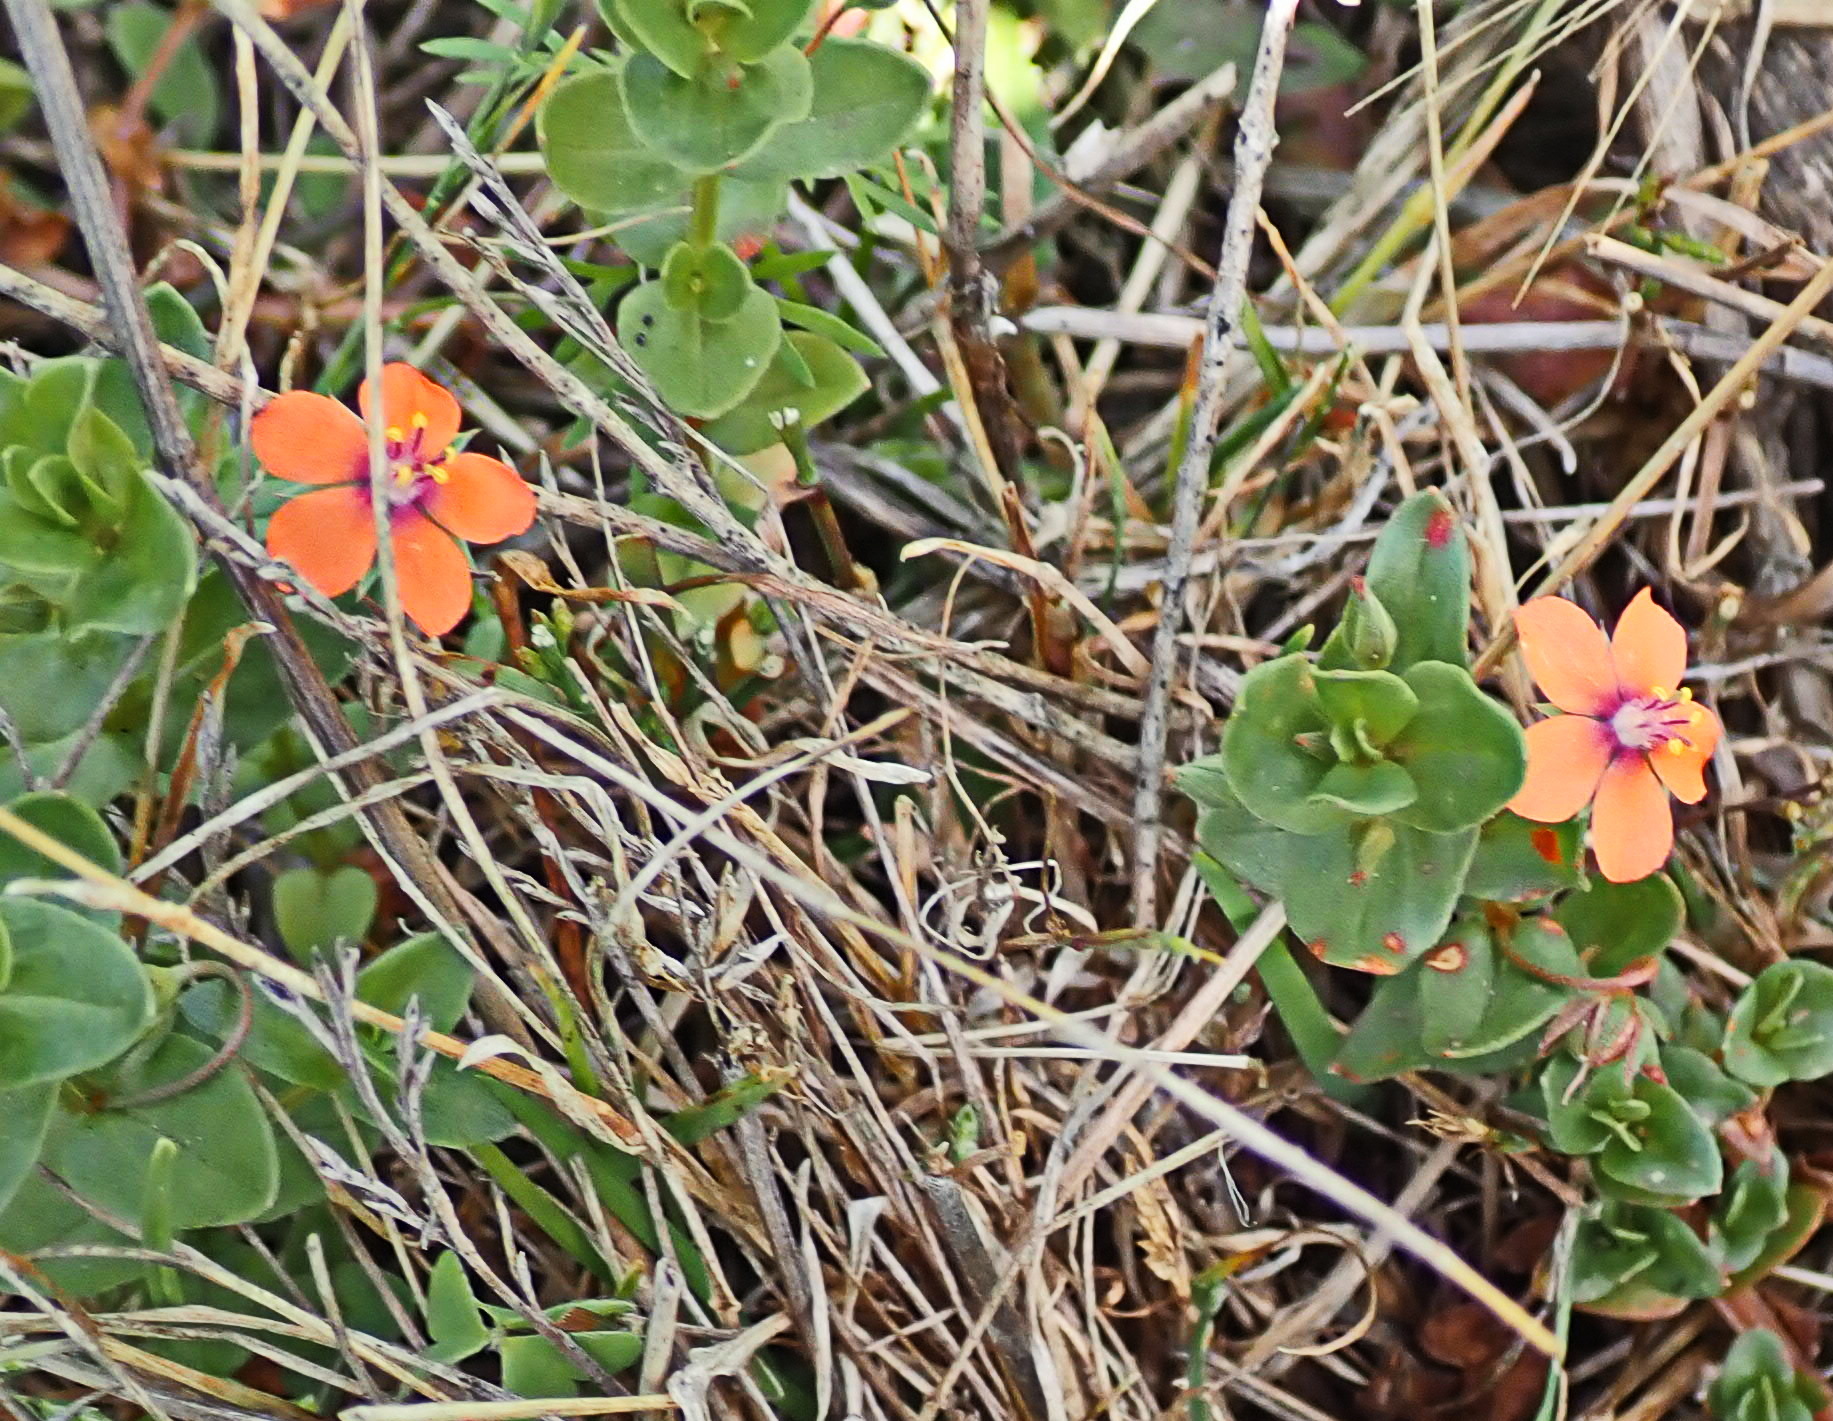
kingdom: Plantae
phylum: Tracheophyta
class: Magnoliopsida
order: Ericales
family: Primulaceae
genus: Lysimachia
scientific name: Lysimachia arvensis
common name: Scarlet pimpernel
